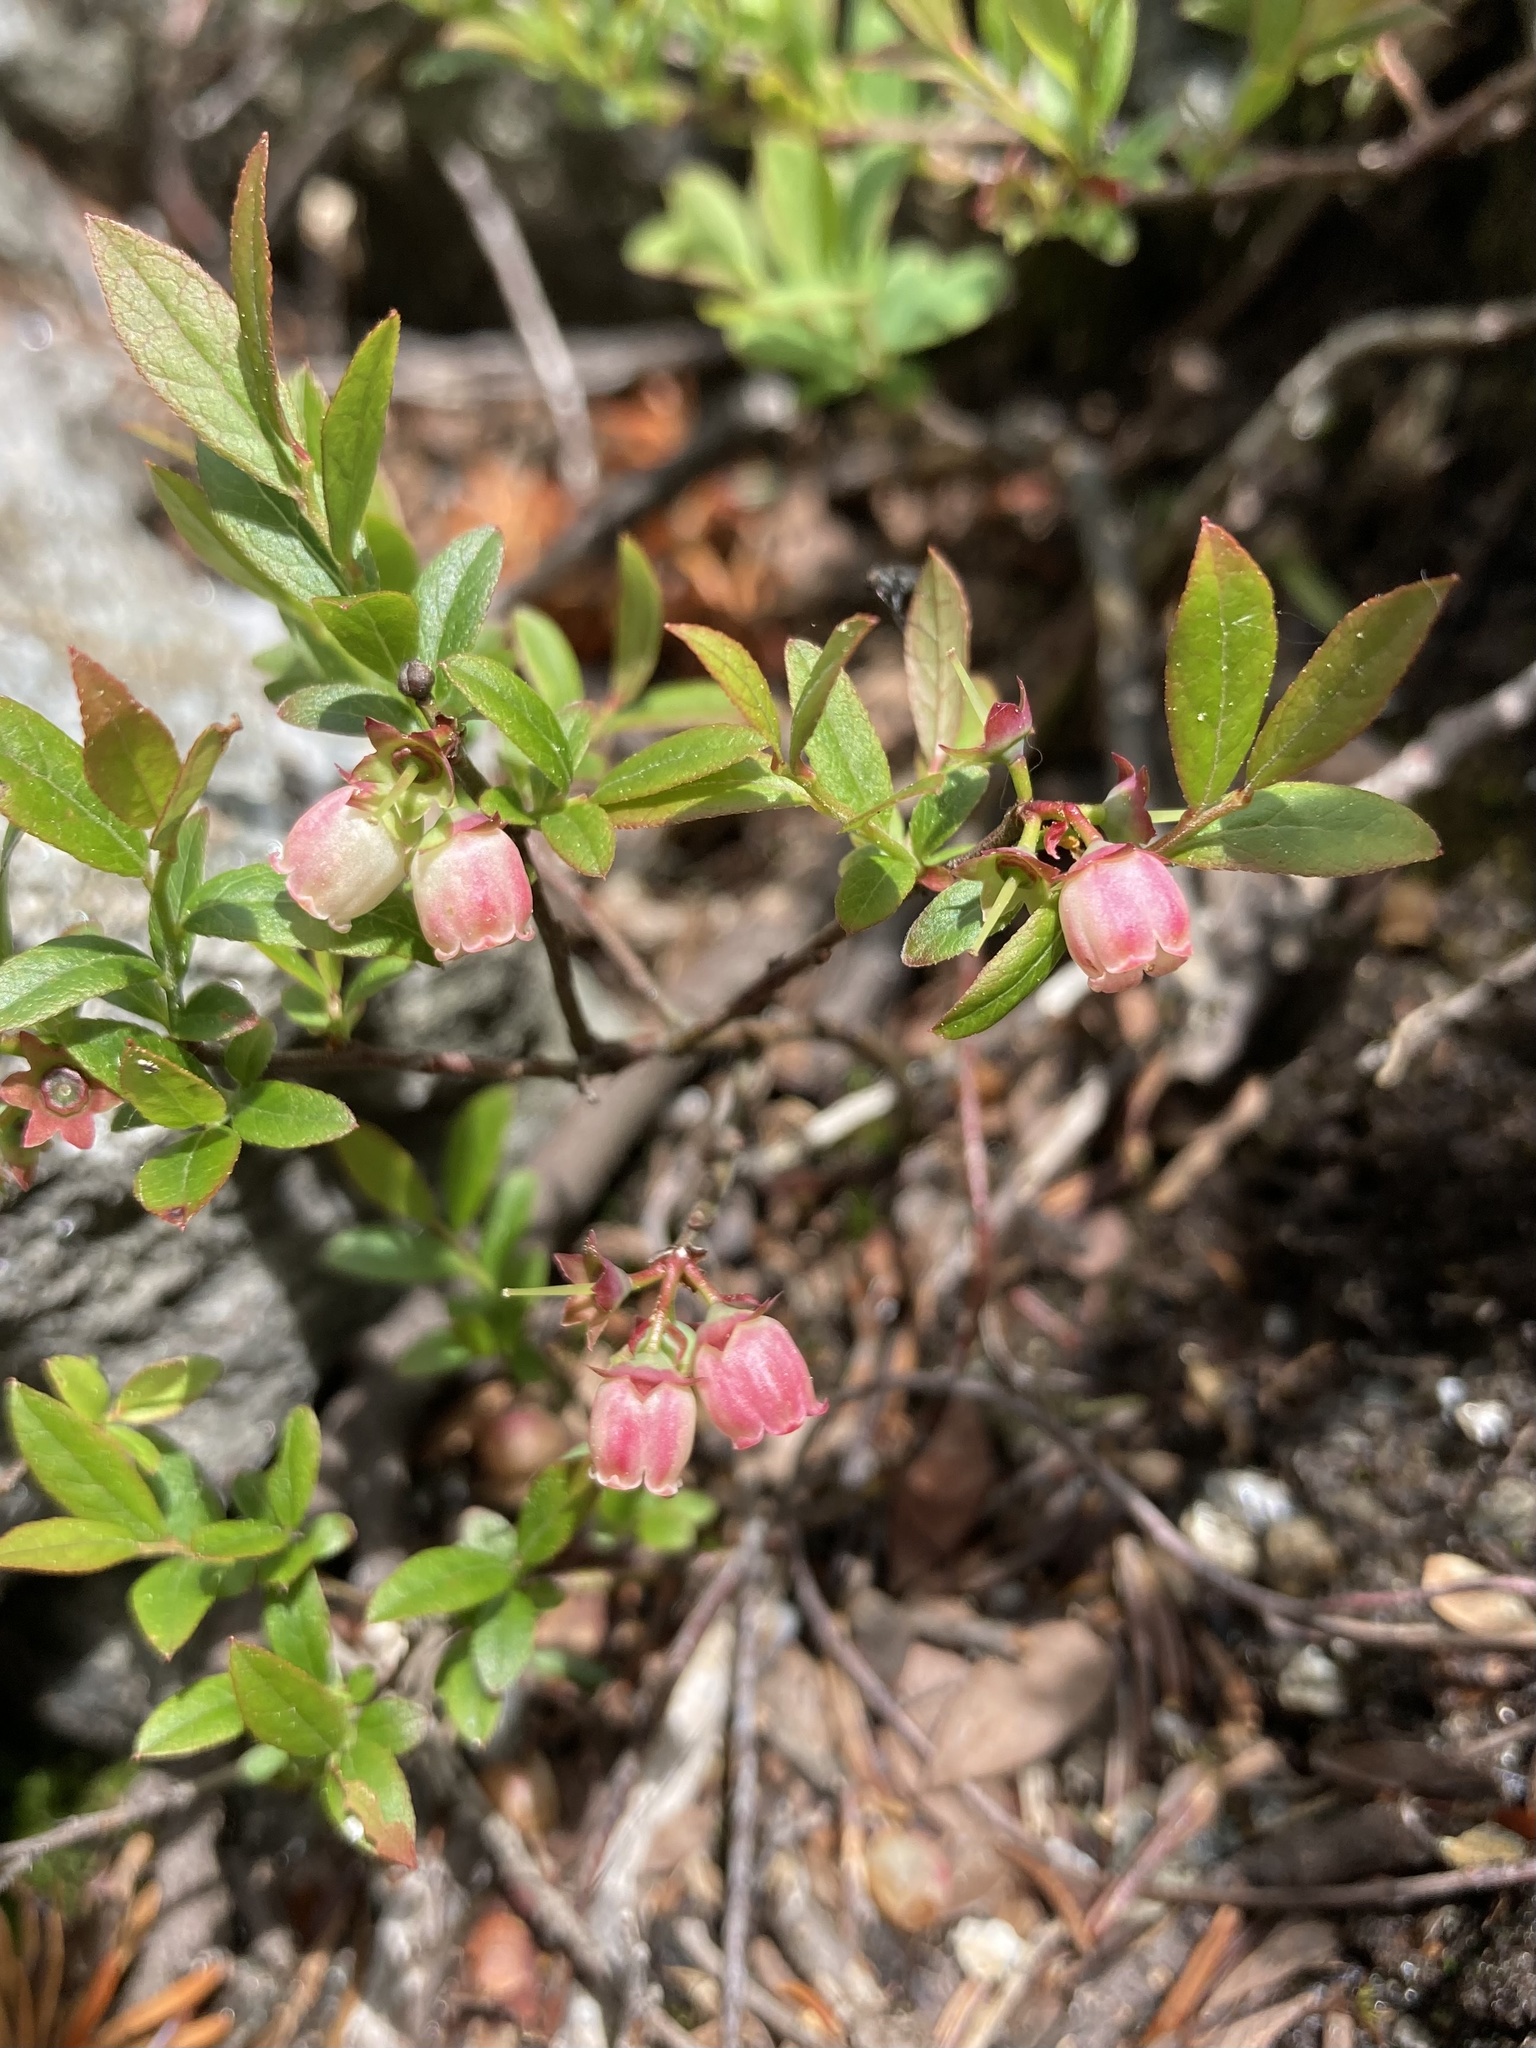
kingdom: Plantae
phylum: Tracheophyta
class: Magnoliopsida
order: Ericales
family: Ericaceae
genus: Vaccinium
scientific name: Vaccinium angustifolium
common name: Early lowbush blueberry
